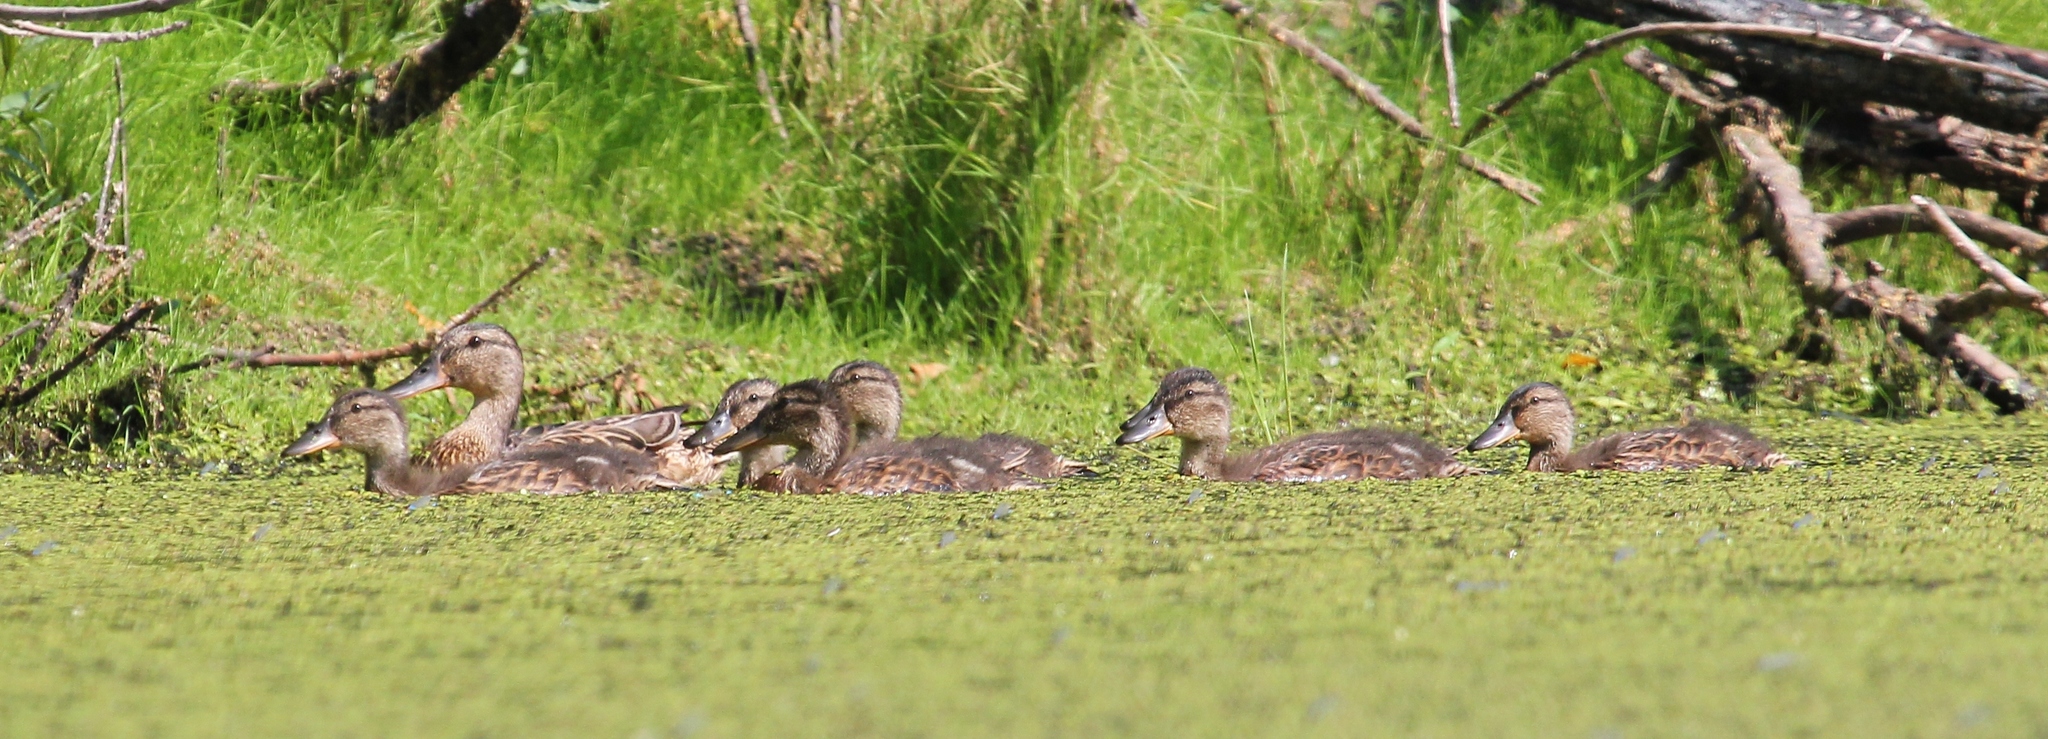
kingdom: Animalia
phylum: Chordata
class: Aves
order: Anseriformes
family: Anatidae
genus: Anas
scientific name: Anas platyrhynchos
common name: Mallard
